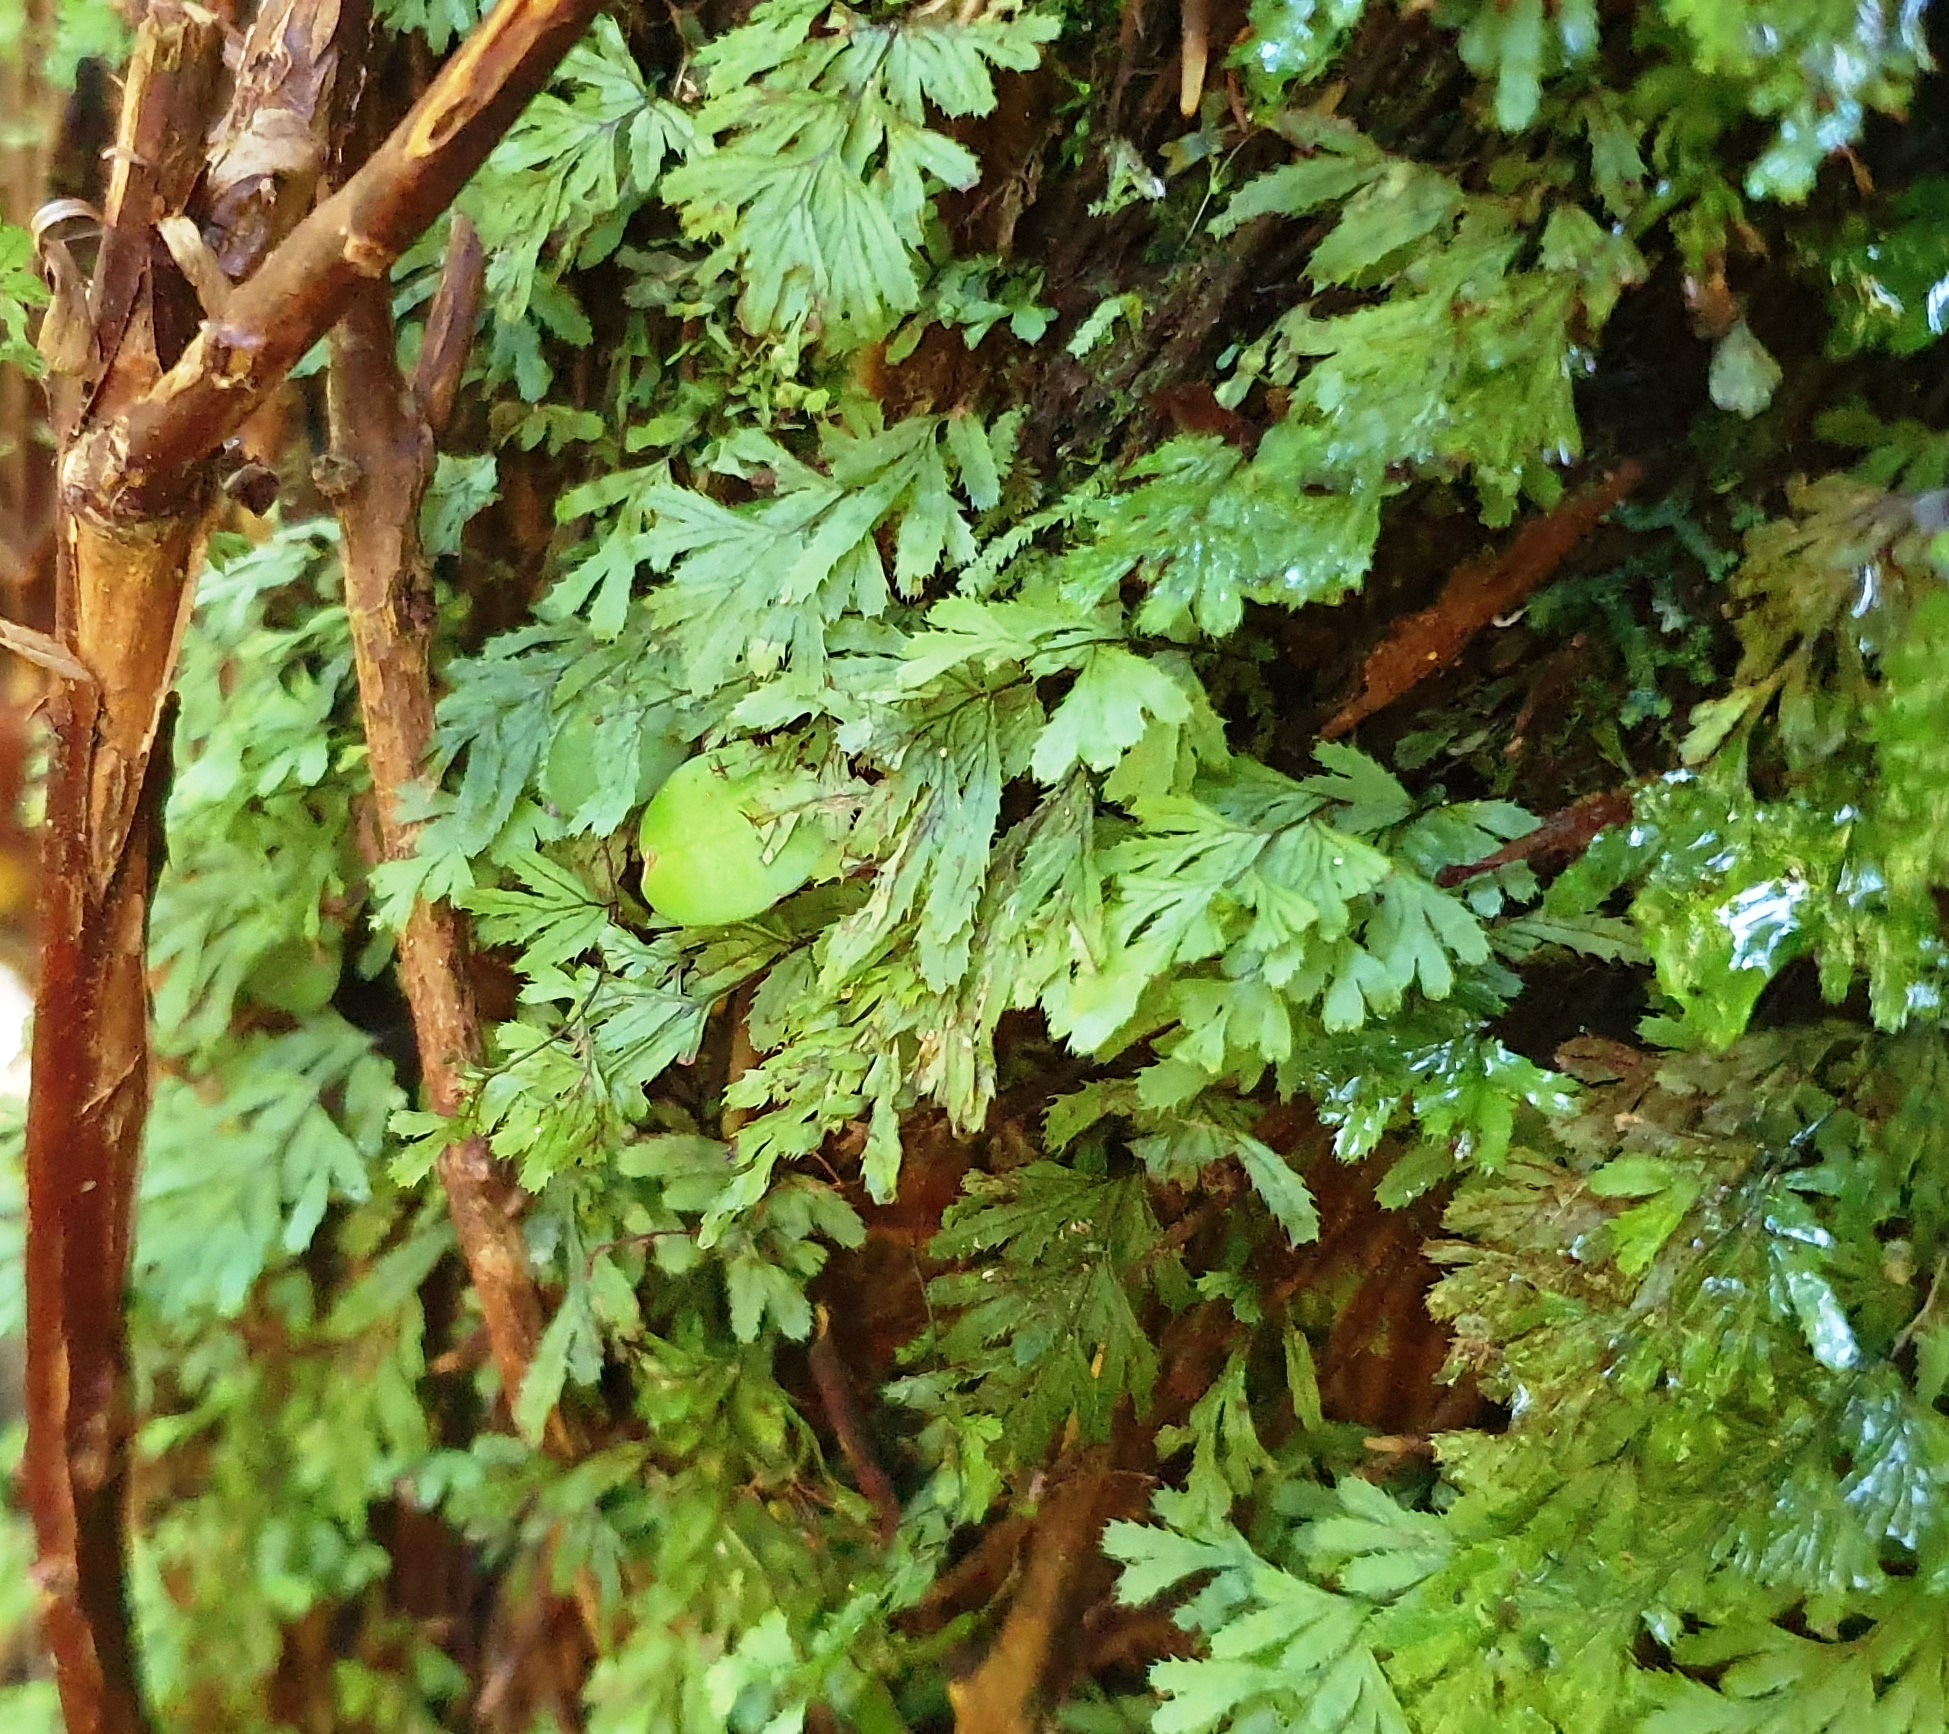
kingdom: Plantae
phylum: Tracheophyta
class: Polypodiopsida
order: Hymenophyllales
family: Hymenophyllaceae
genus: Hymenophyllum
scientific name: Hymenophyllum revolutum
